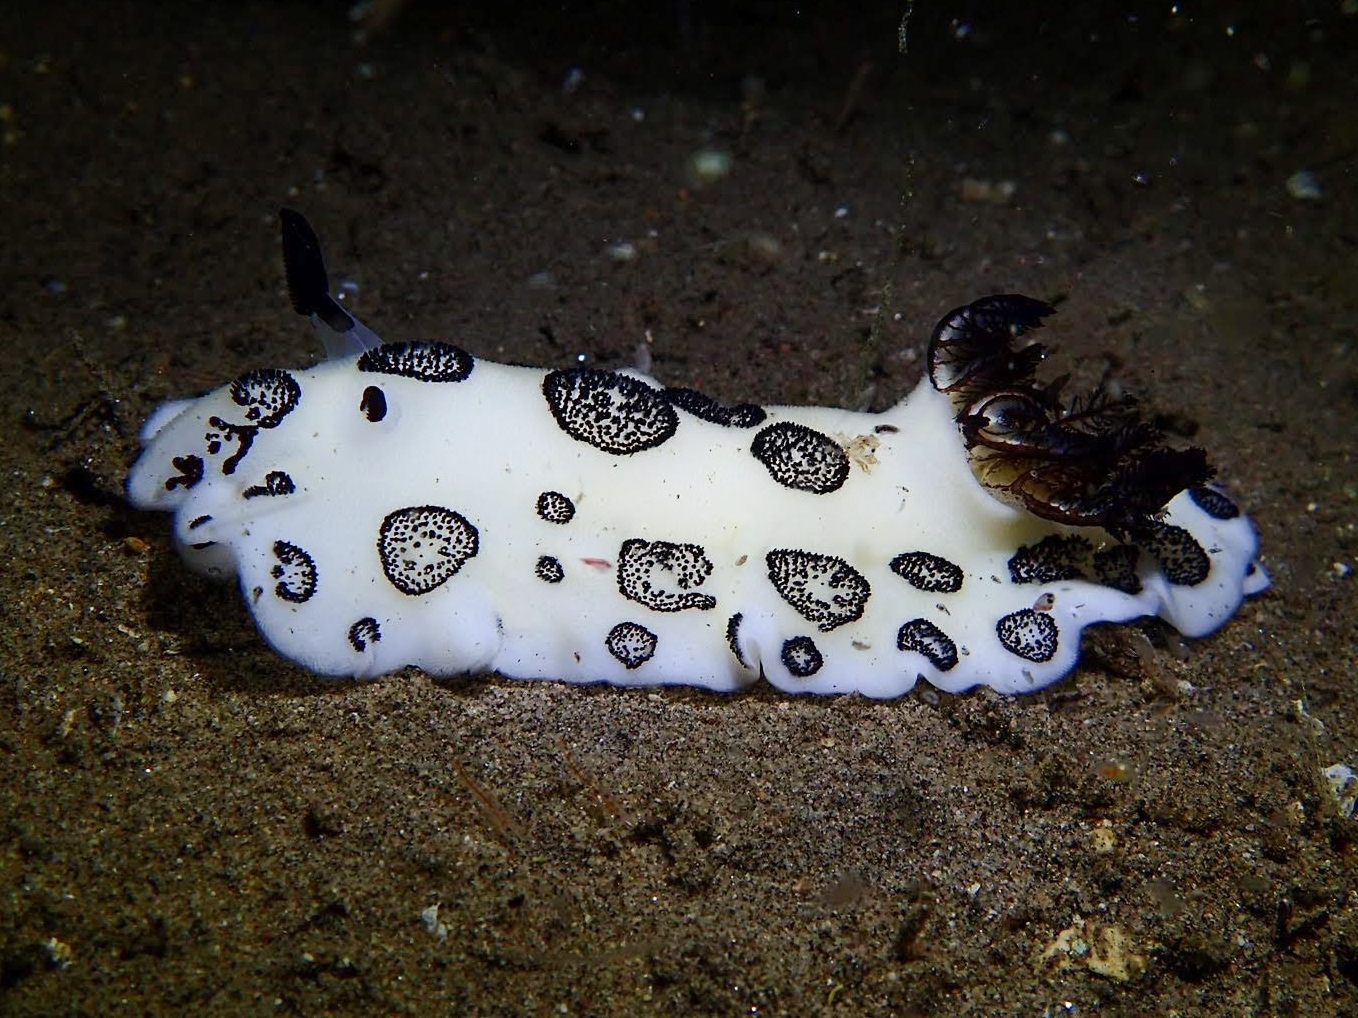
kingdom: Animalia
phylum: Mollusca
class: Gastropoda
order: Nudibranchia
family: Discodorididae
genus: Jorunna
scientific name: Jorunna funebris
